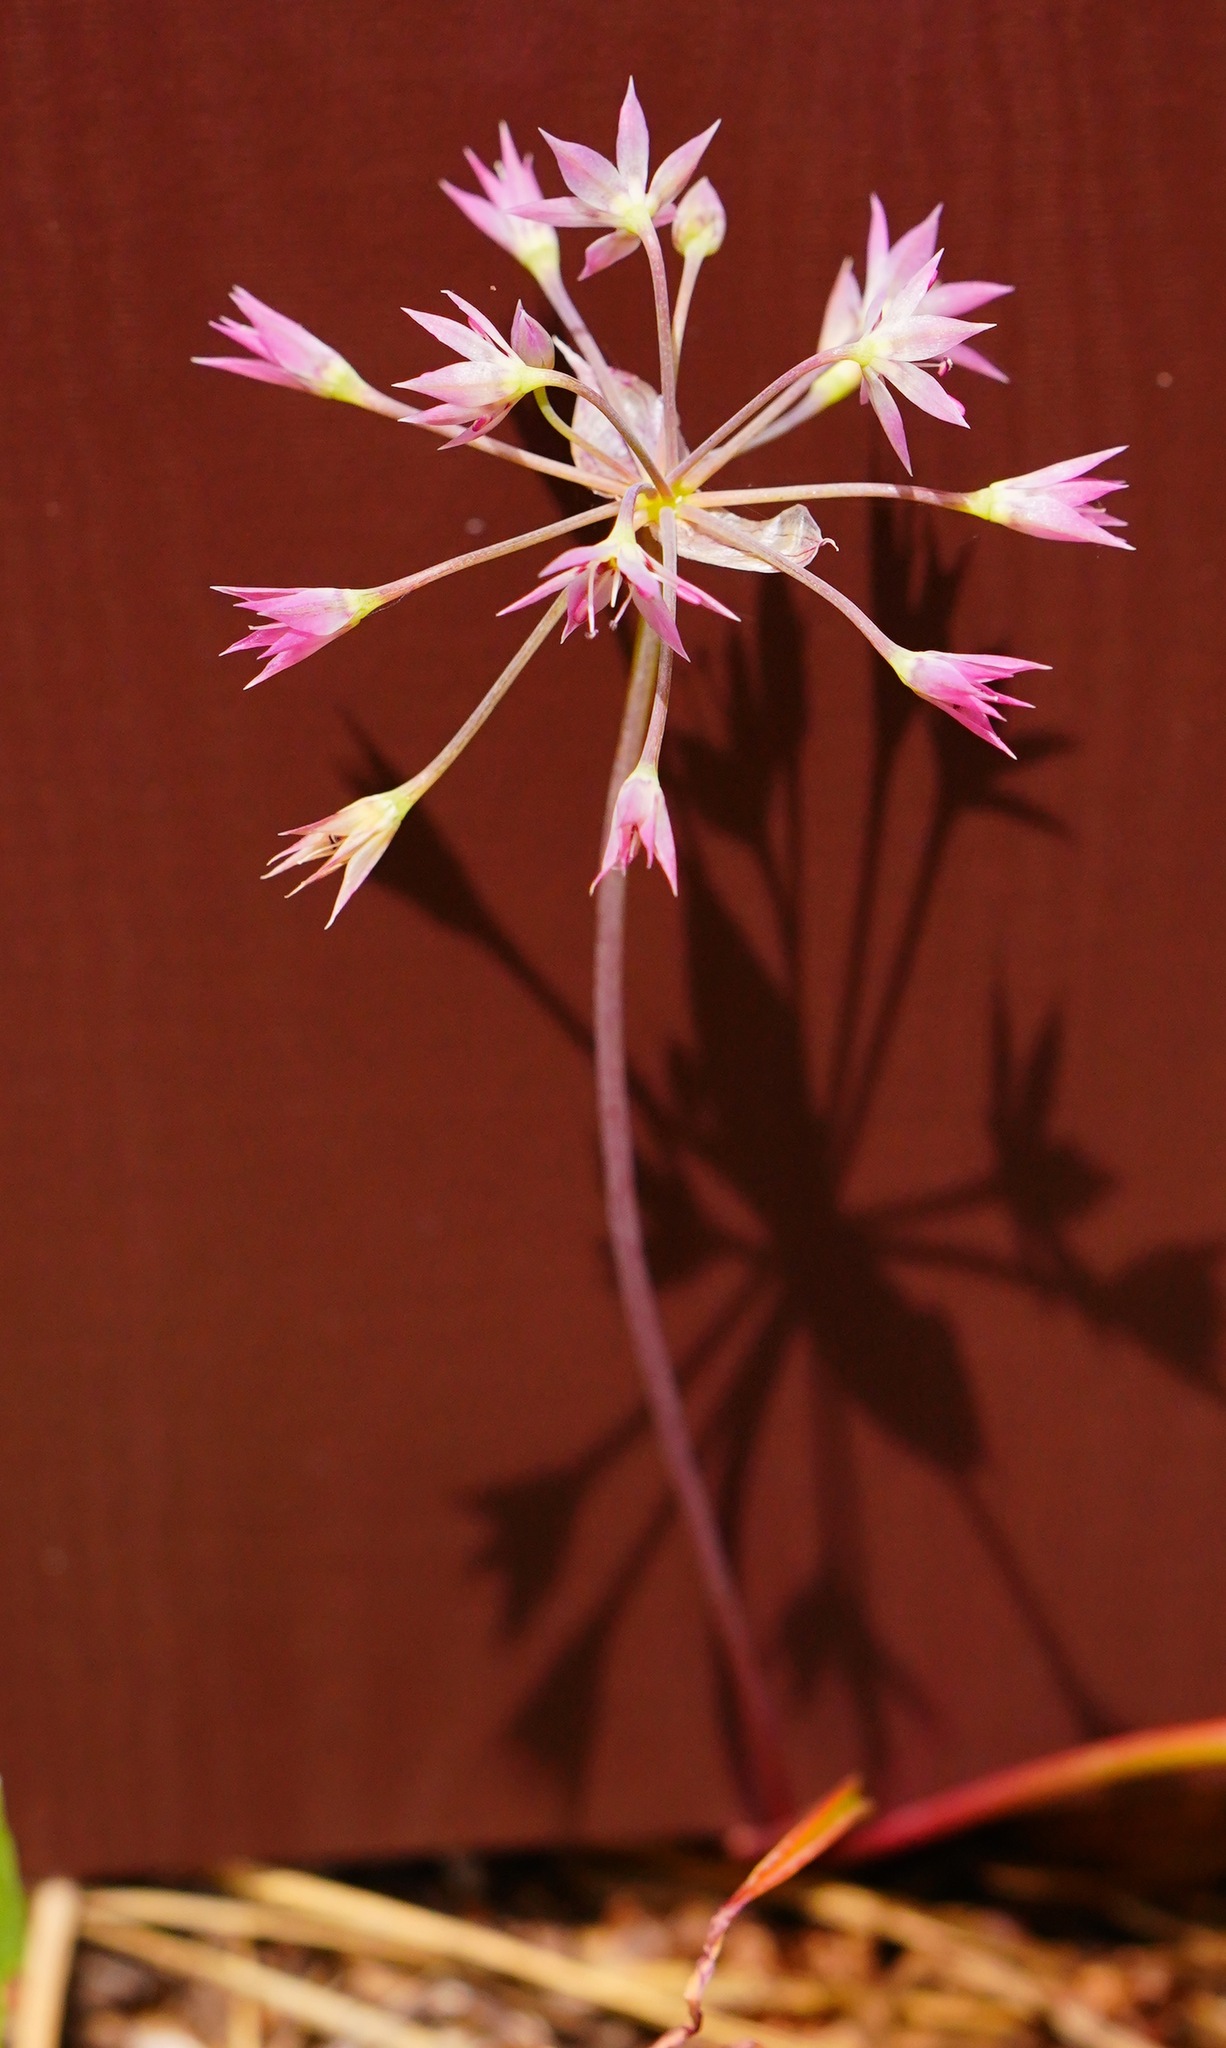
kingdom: Plantae
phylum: Tracheophyta
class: Liliopsida
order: Asparagales
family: Amaryllidaceae
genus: Allium
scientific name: Allium campanulatum
